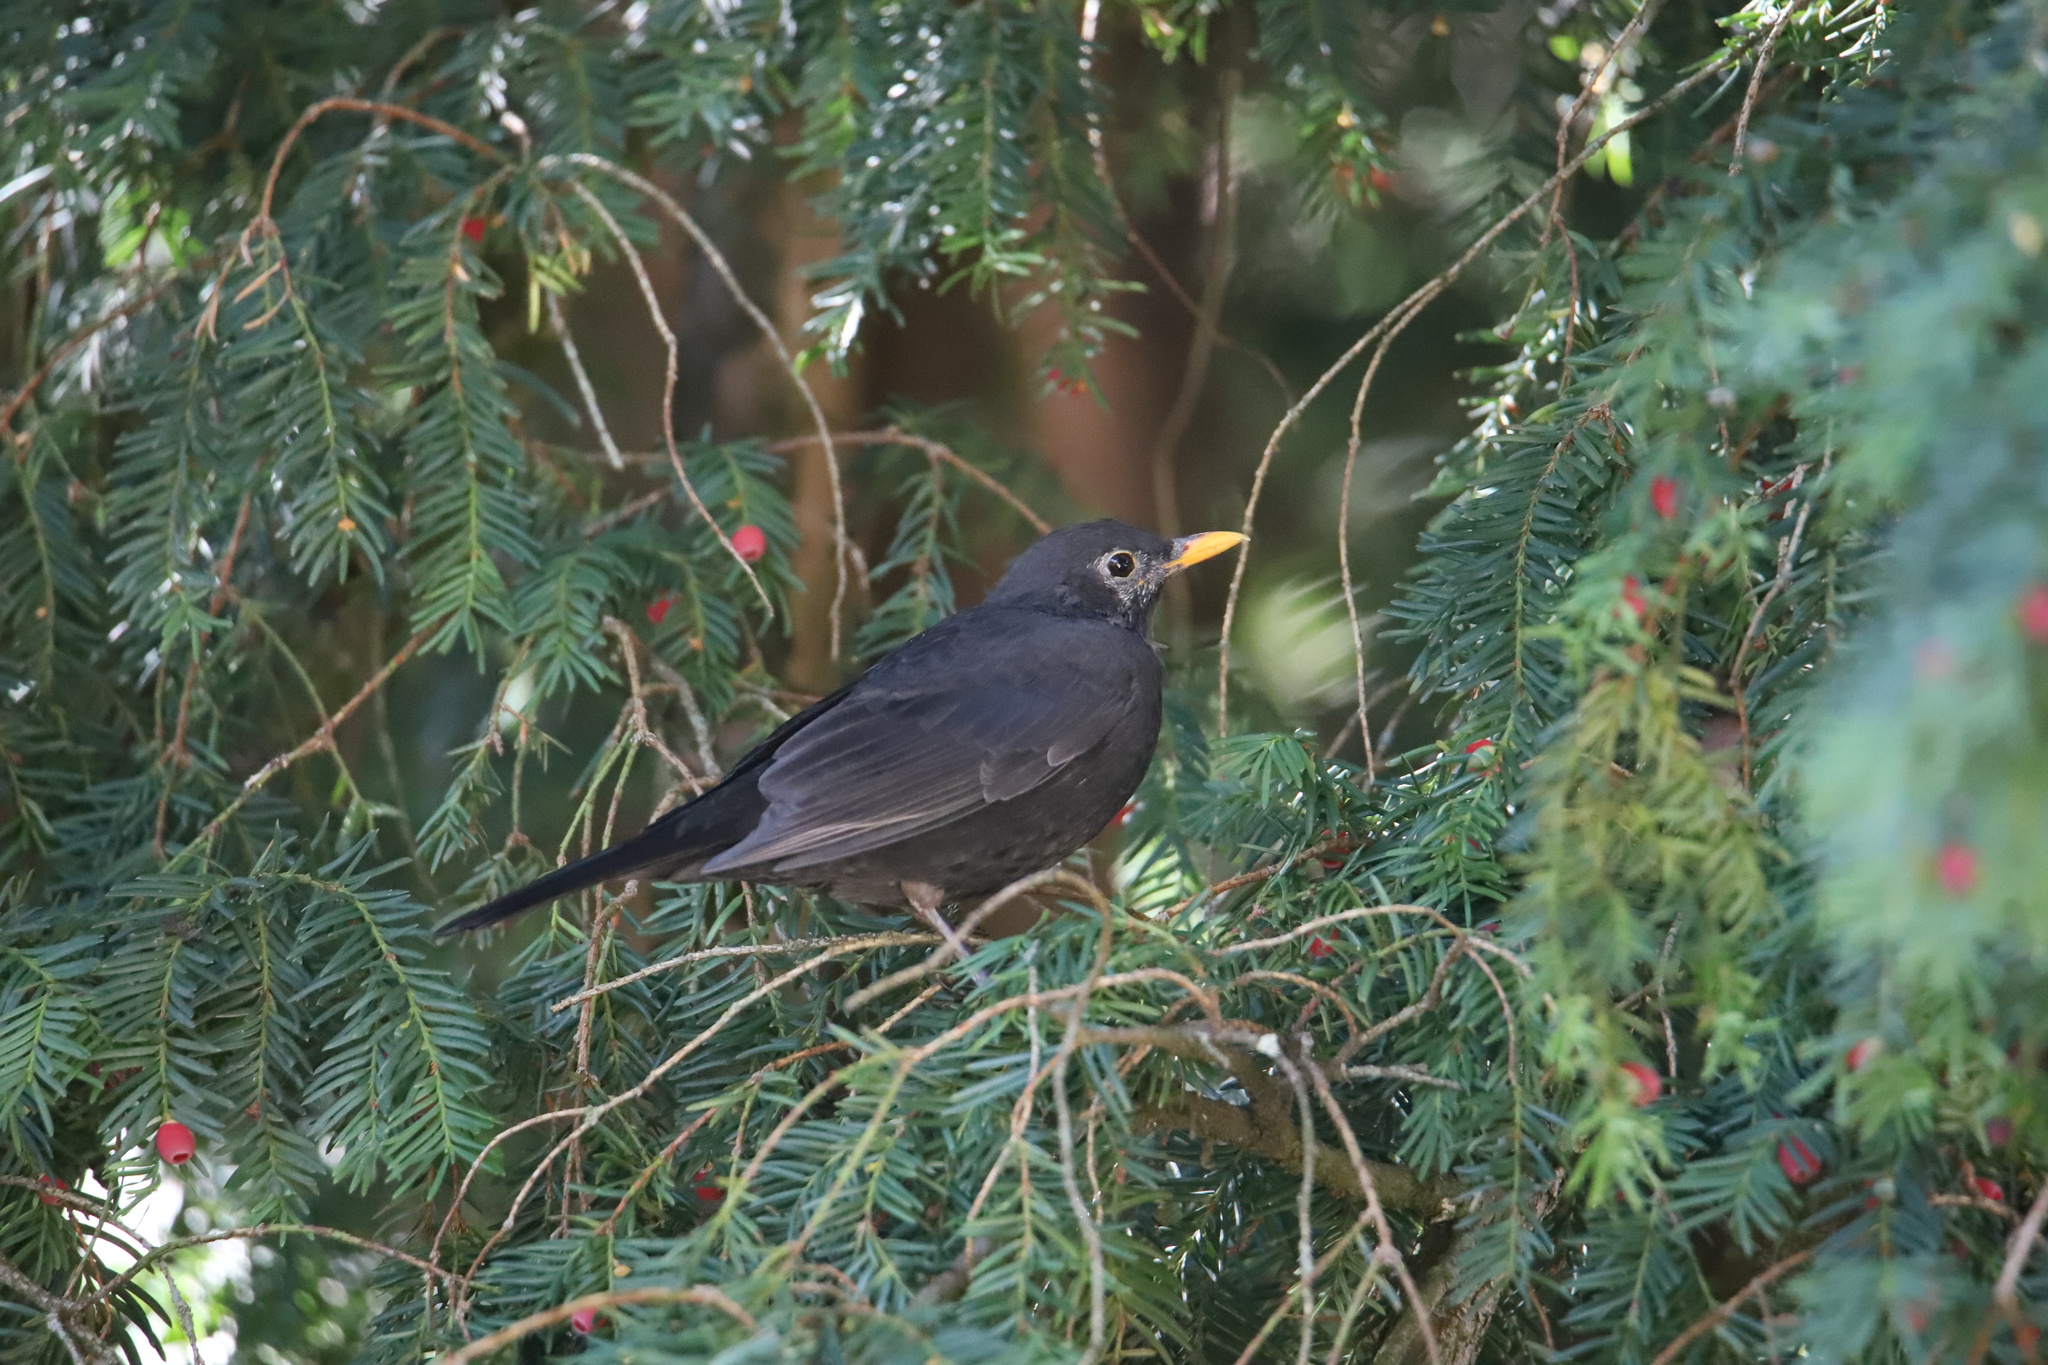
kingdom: Animalia
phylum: Chordata
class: Aves
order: Passeriformes
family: Turdidae
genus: Turdus
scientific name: Turdus merula
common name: Common blackbird
